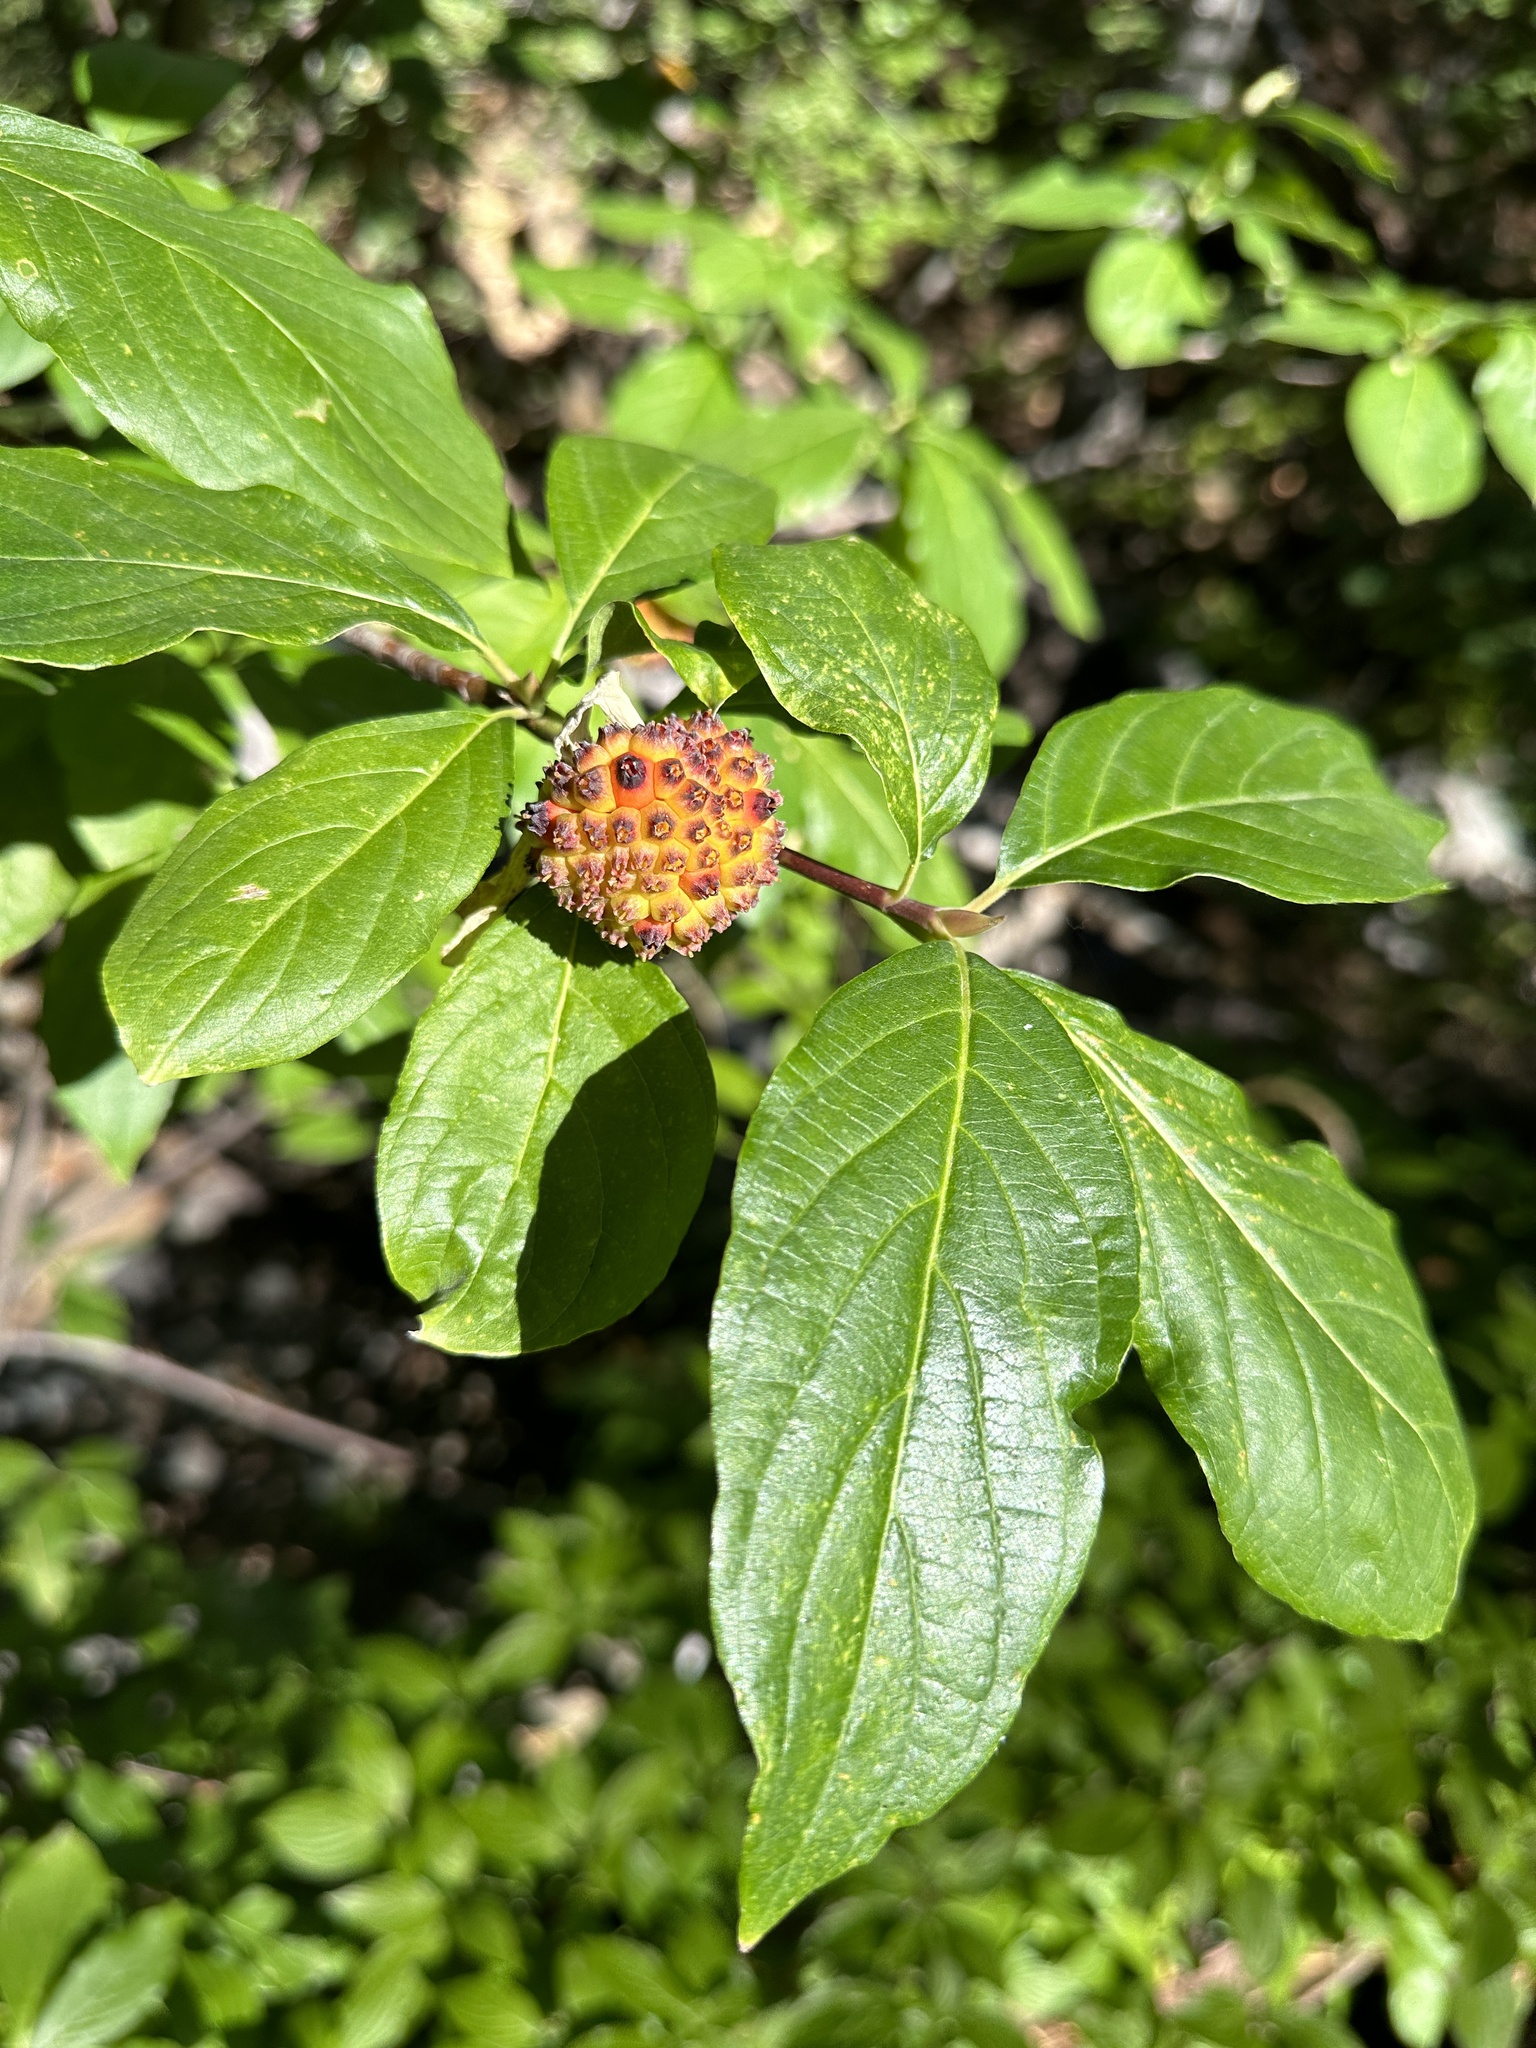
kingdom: Plantae
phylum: Tracheophyta
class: Magnoliopsida
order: Cornales
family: Cornaceae
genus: Cornus
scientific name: Cornus nuttallii
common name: Pacific dogwood
